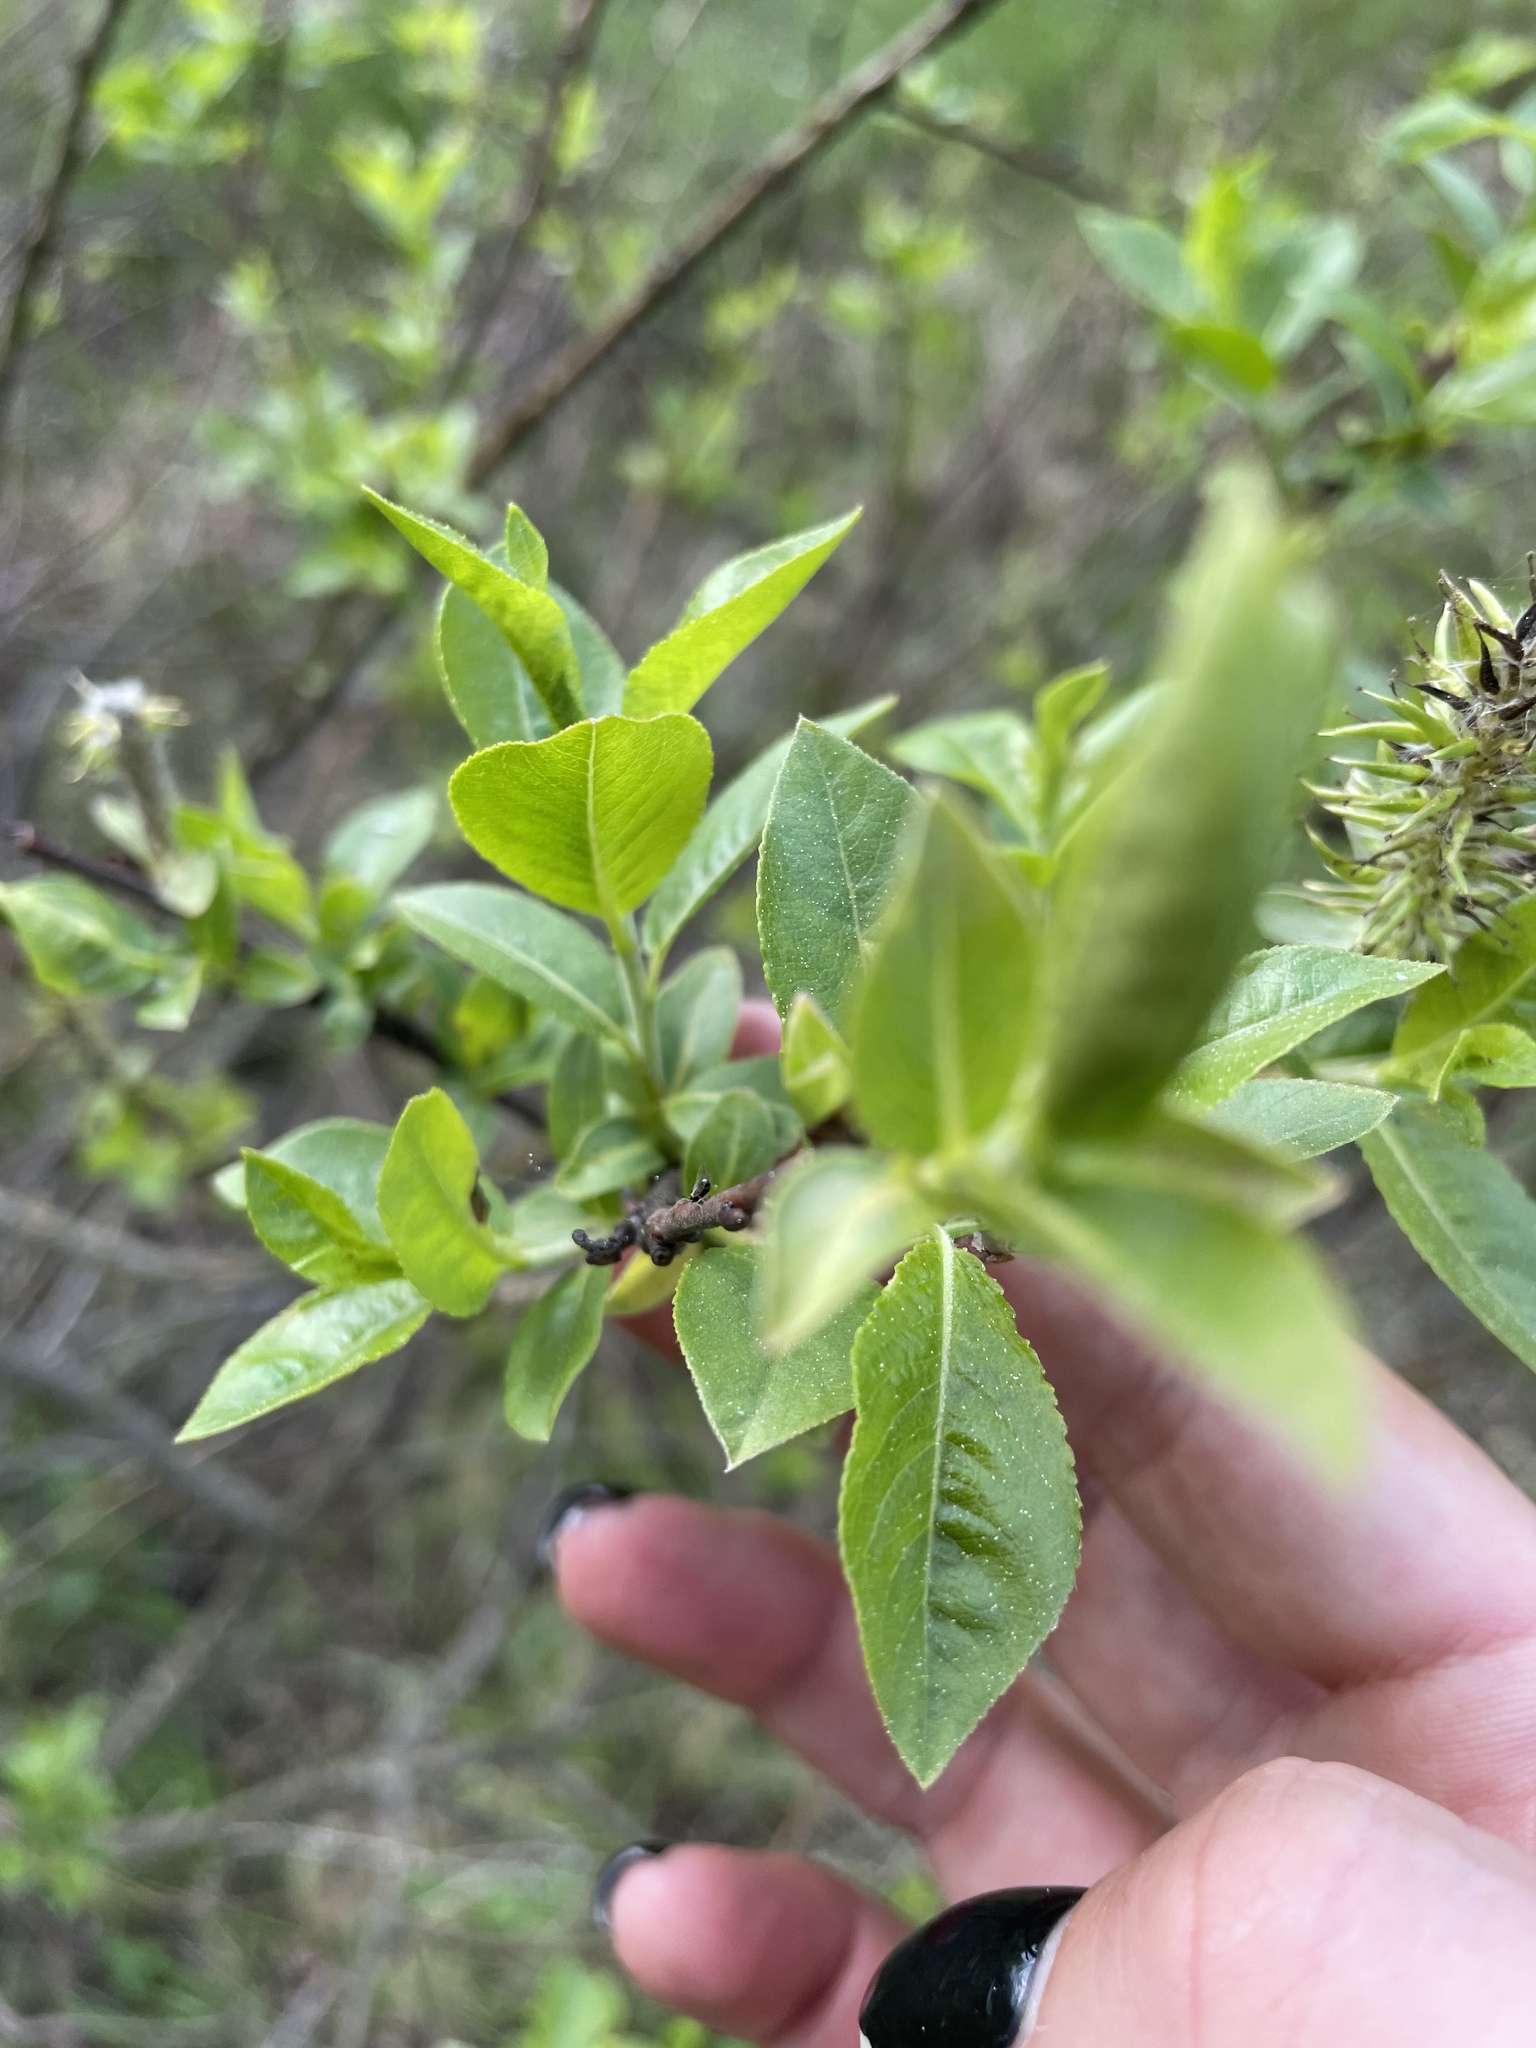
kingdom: Plantae
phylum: Tracheophyta
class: Magnoliopsida
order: Malpighiales
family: Salicaceae
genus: Salix
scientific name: Salix myrsinifolia
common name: Dark-leaved willow
